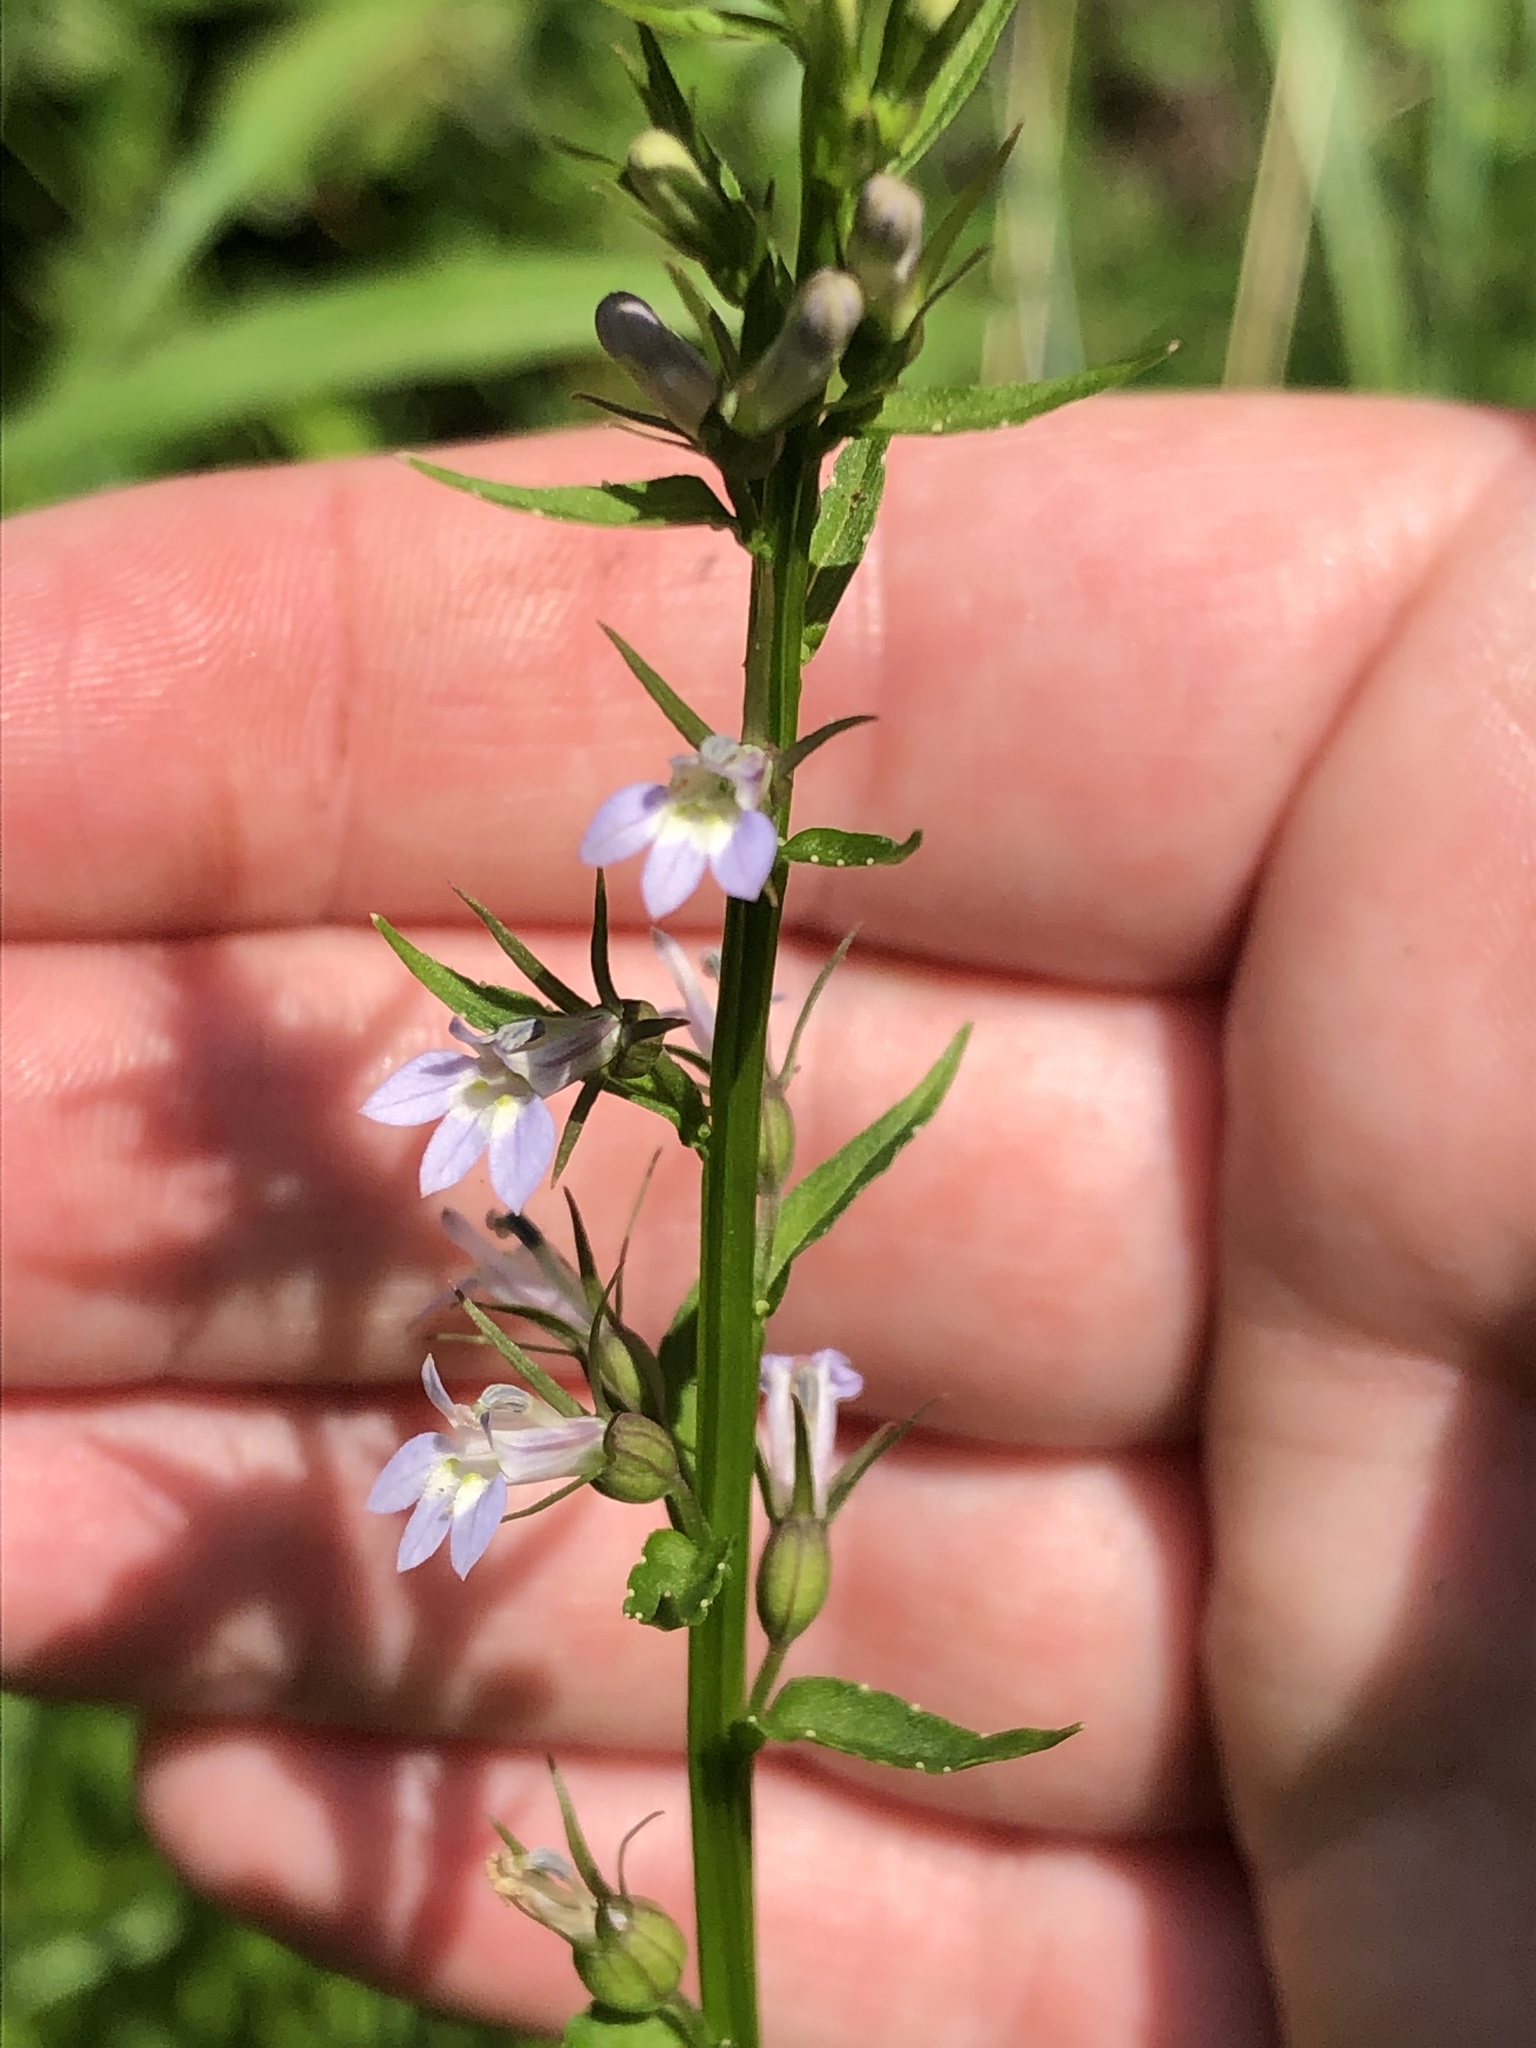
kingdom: Plantae
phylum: Tracheophyta
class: Magnoliopsida
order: Asterales
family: Campanulaceae
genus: Lobelia
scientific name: Lobelia inflata
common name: Indian tobacco
